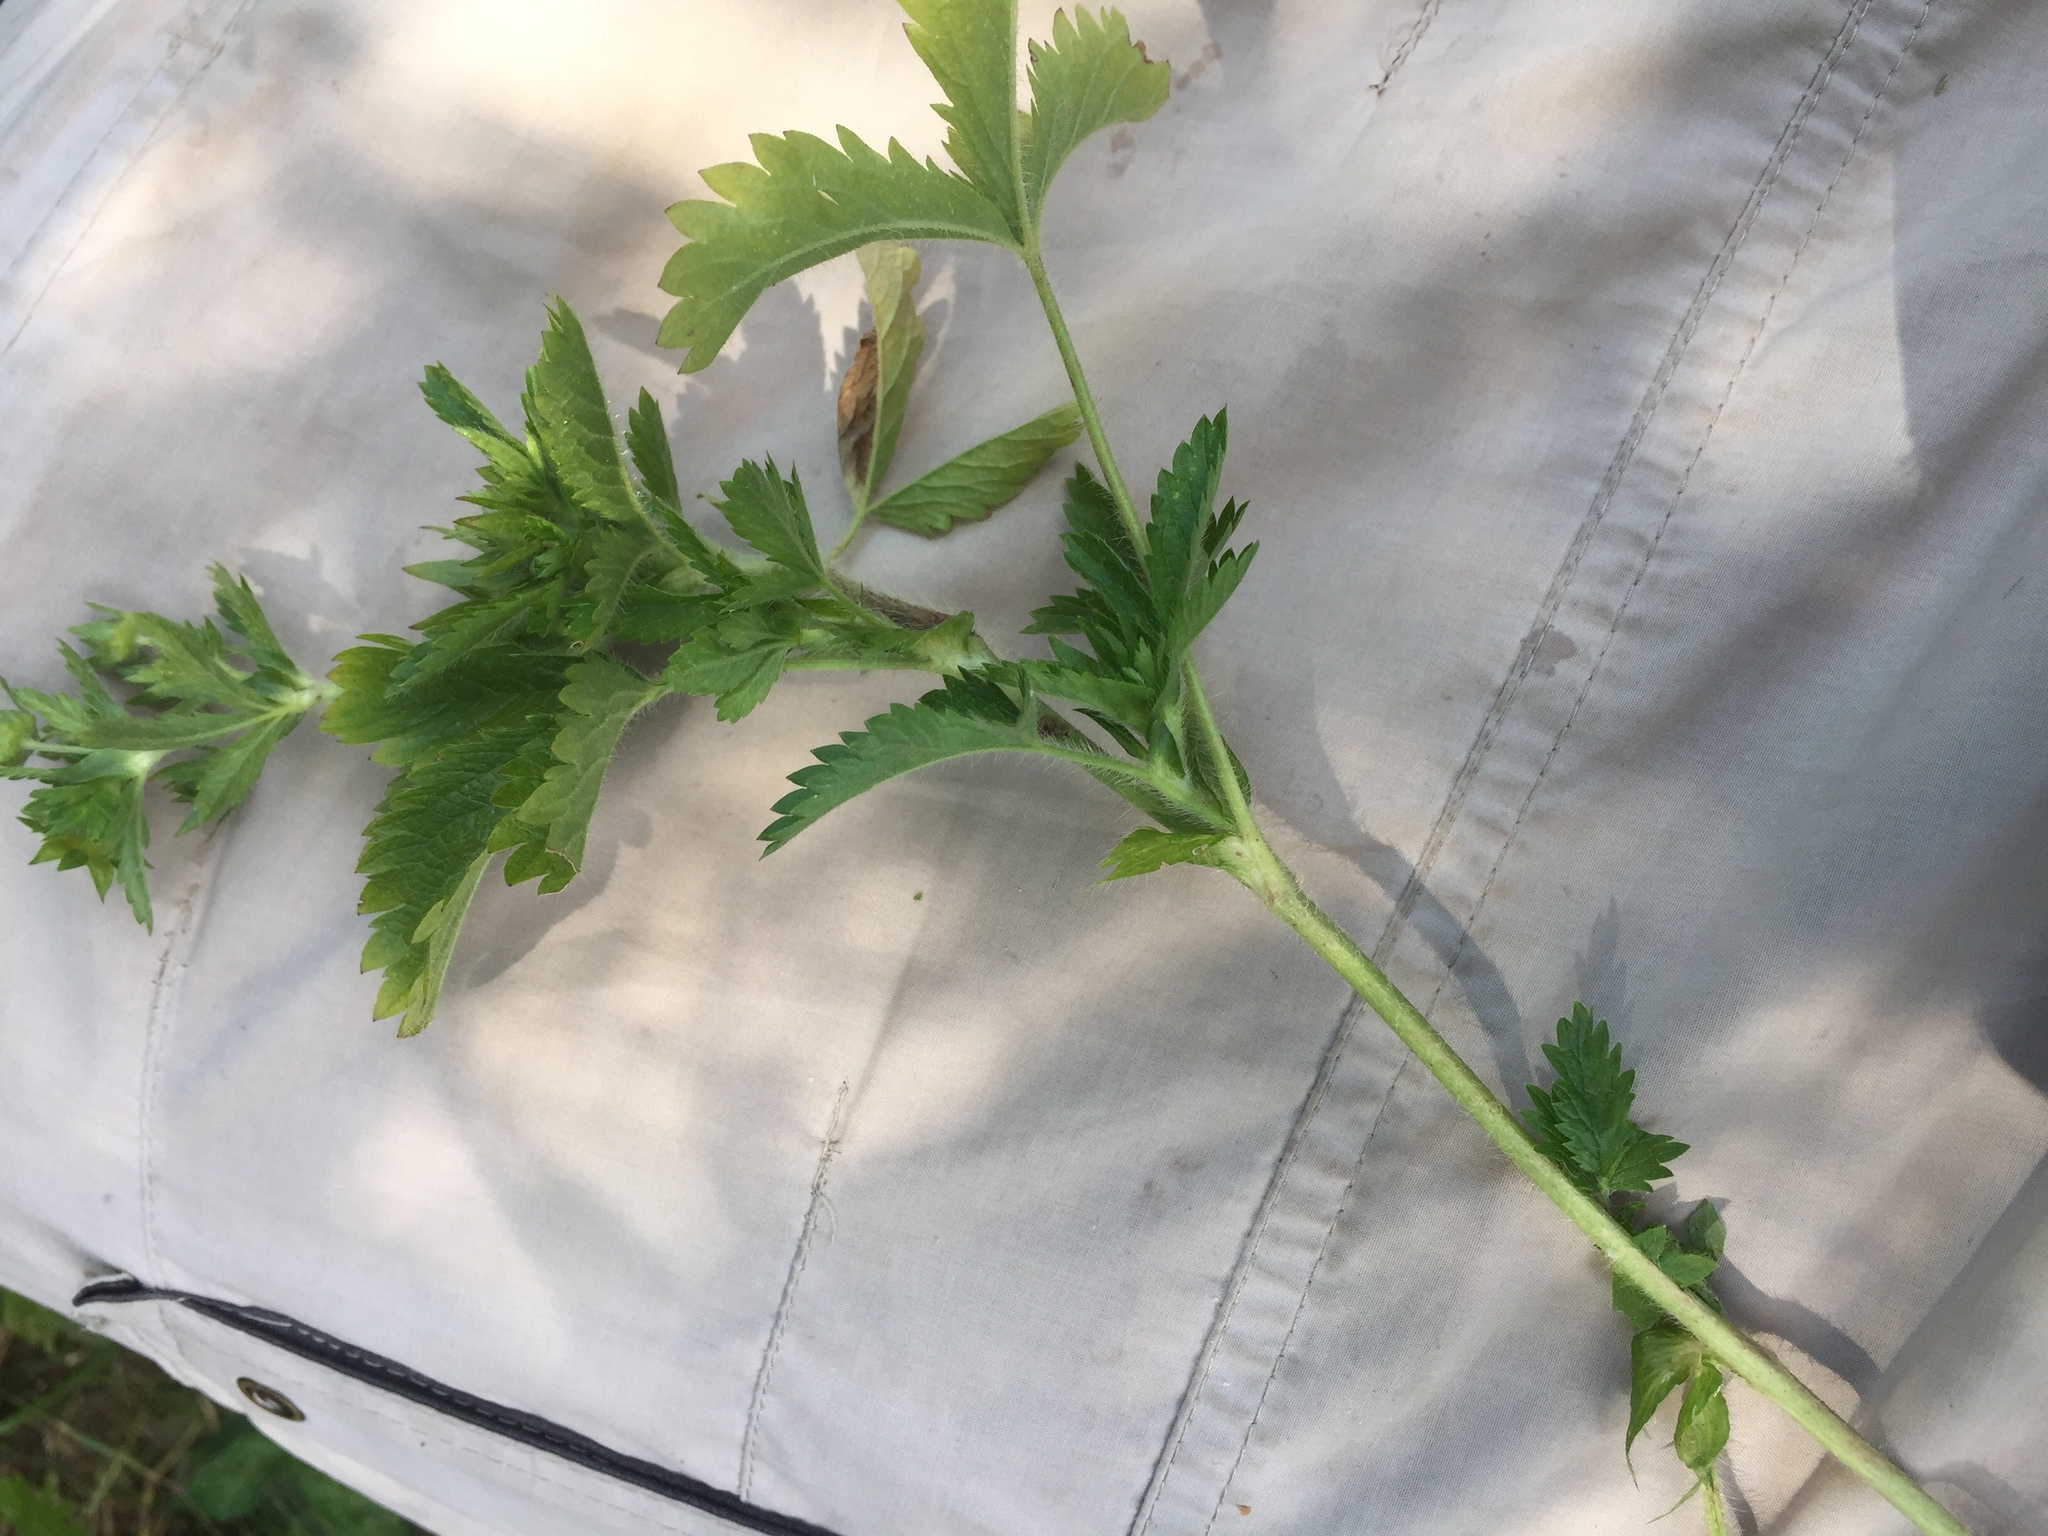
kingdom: Plantae
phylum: Tracheophyta
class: Magnoliopsida
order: Rosales
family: Rosaceae
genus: Potentilla
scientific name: Potentilla norvegica
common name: Ternate-leaved cinquefoil
